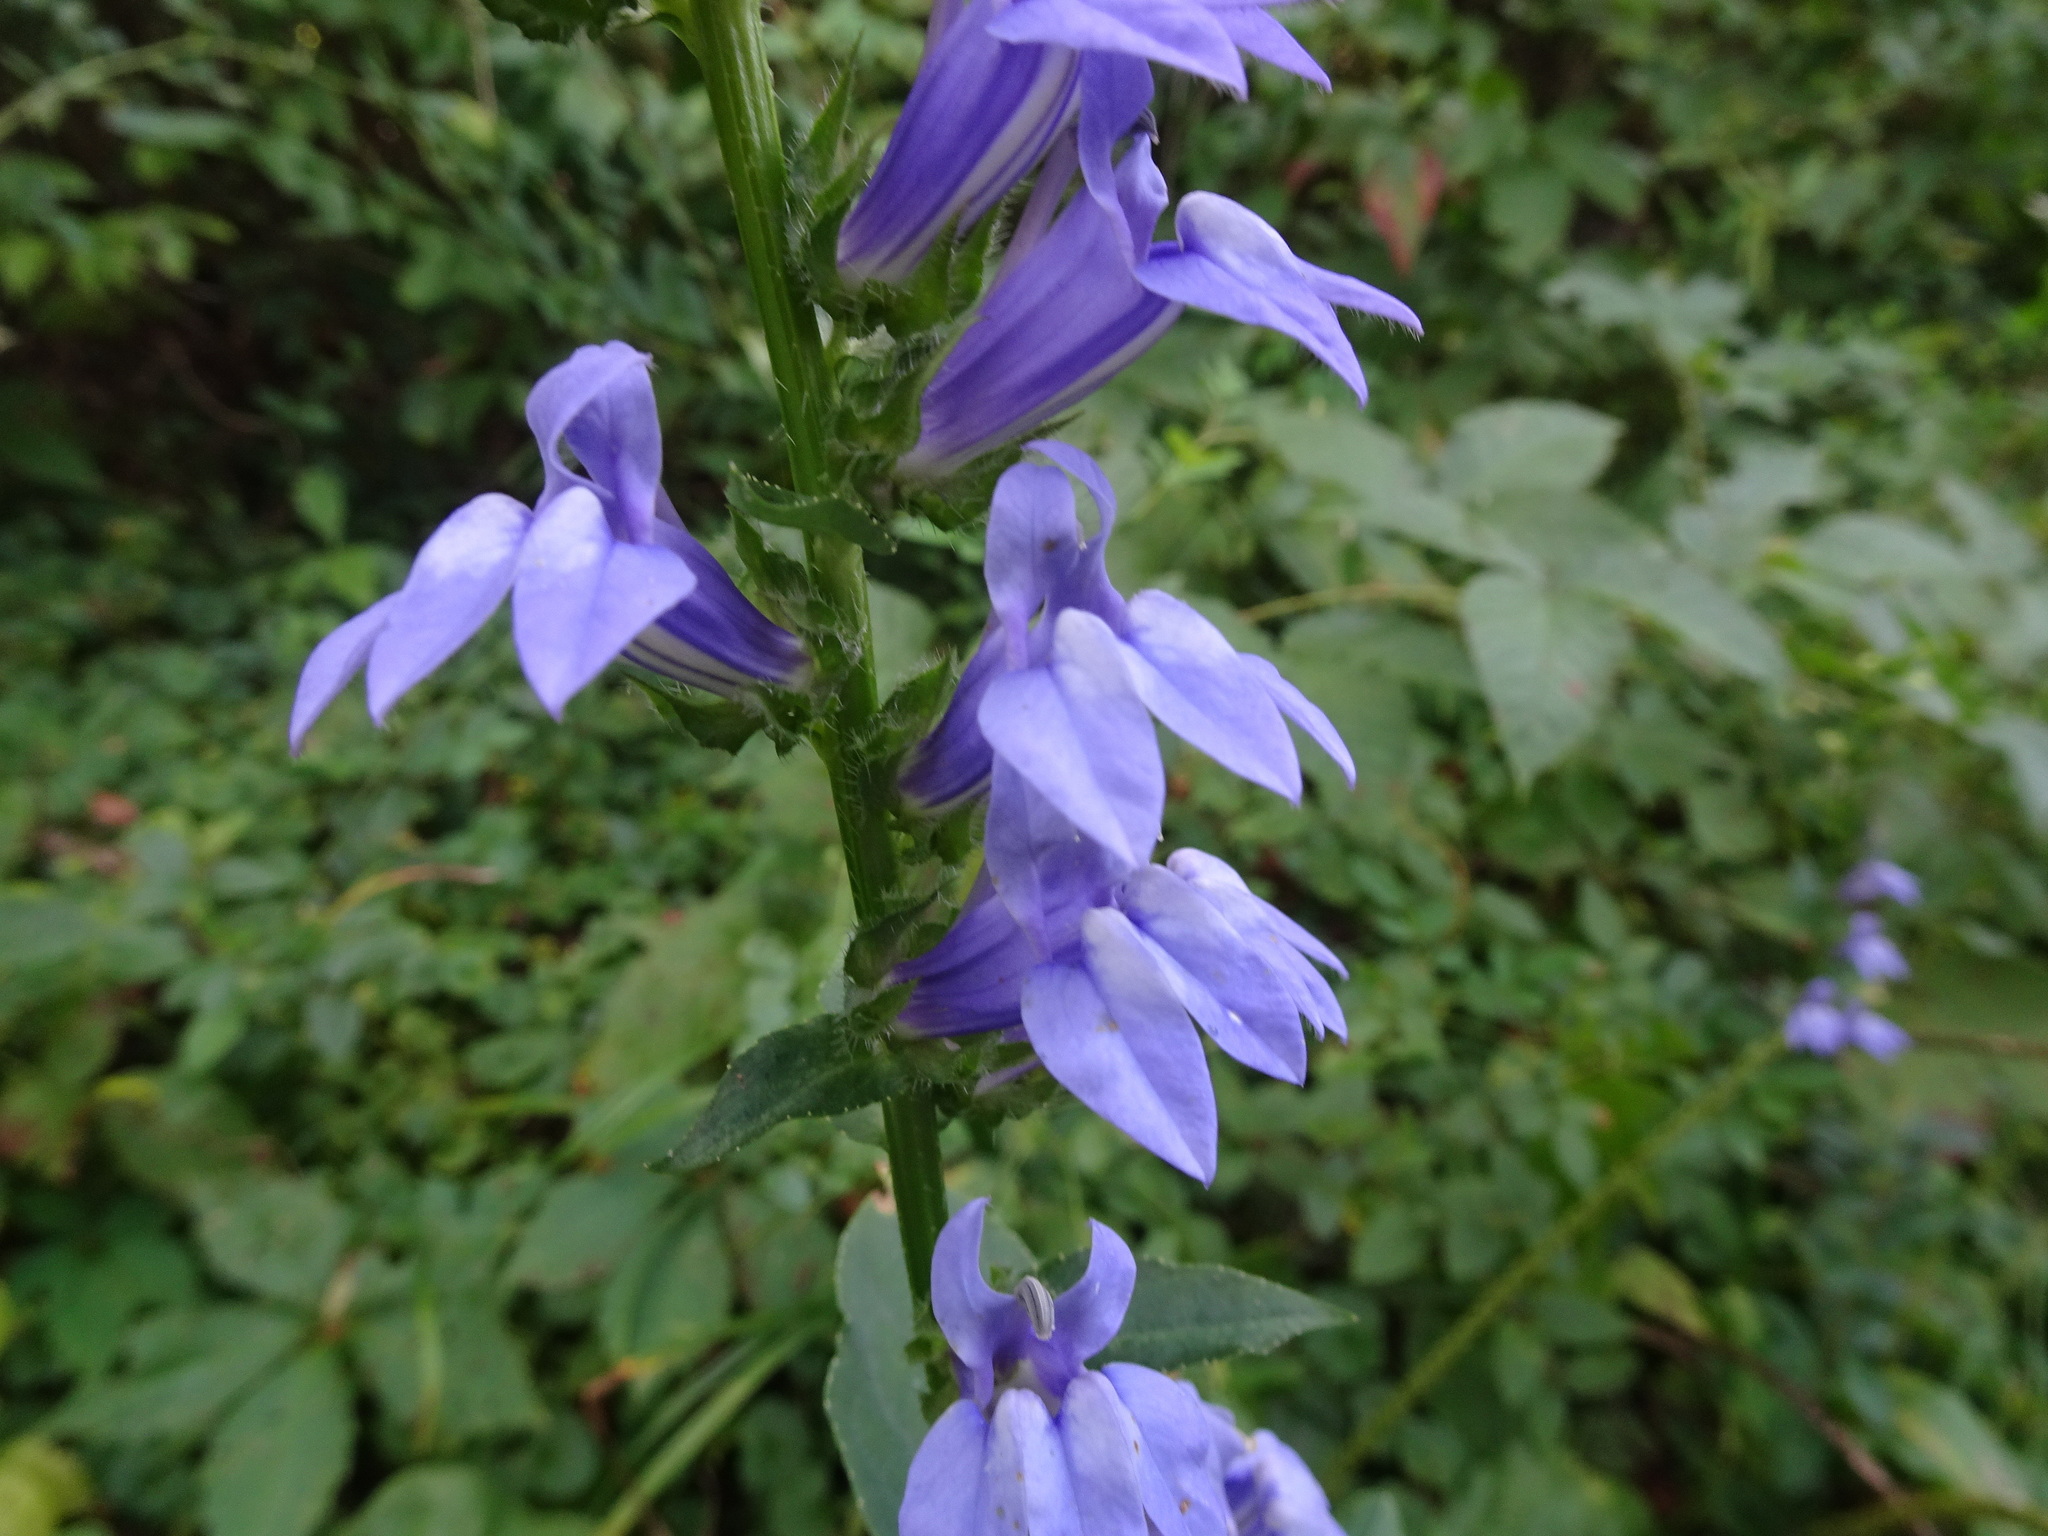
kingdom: Plantae
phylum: Tracheophyta
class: Magnoliopsida
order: Asterales
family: Campanulaceae
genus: Lobelia
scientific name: Lobelia siphilitica
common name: Great lobelia
